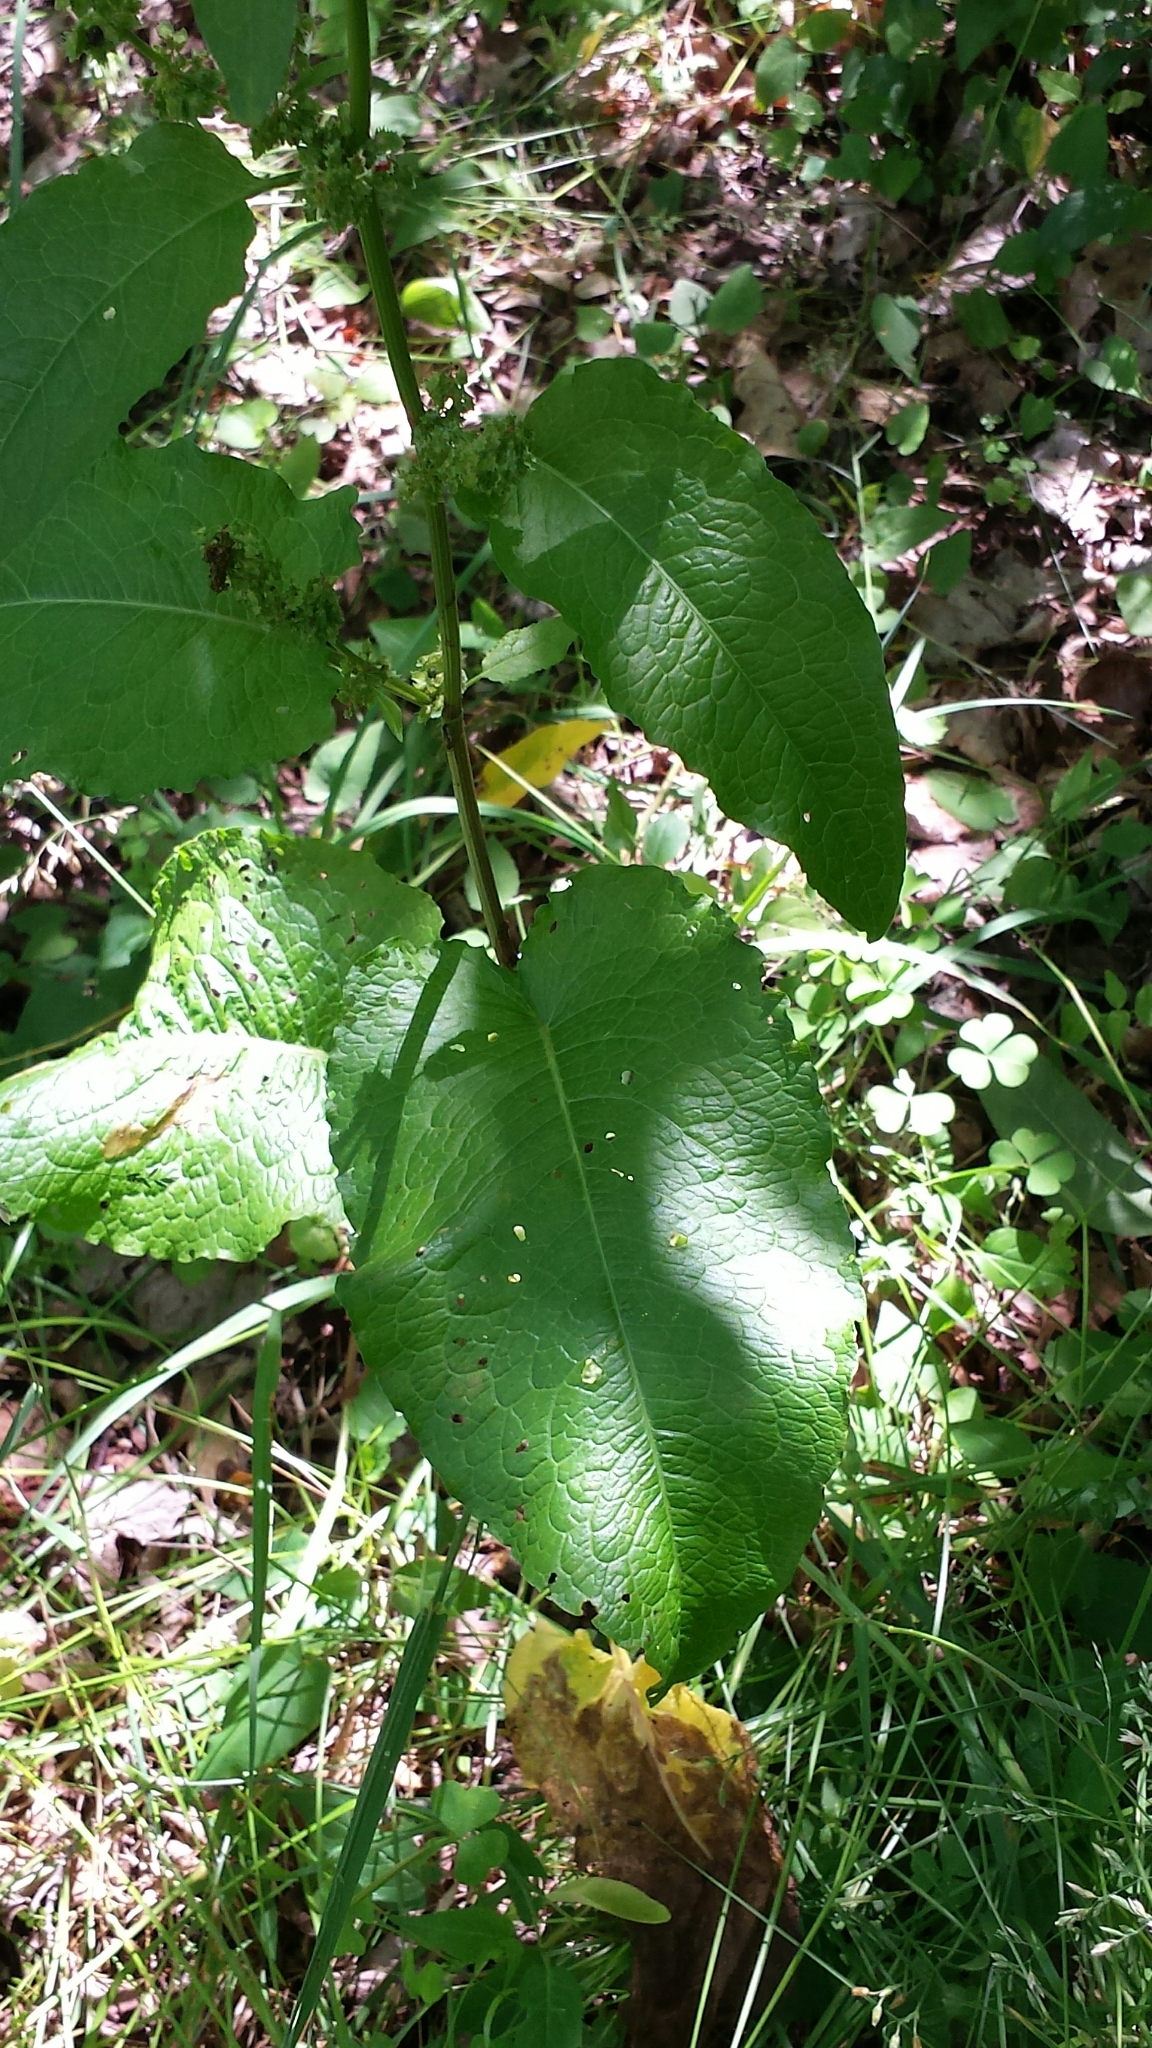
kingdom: Plantae
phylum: Tracheophyta
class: Magnoliopsida
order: Caryophyllales
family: Polygonaceae
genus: Rumex
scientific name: Rumex obtusifolius
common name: Bitter dock
